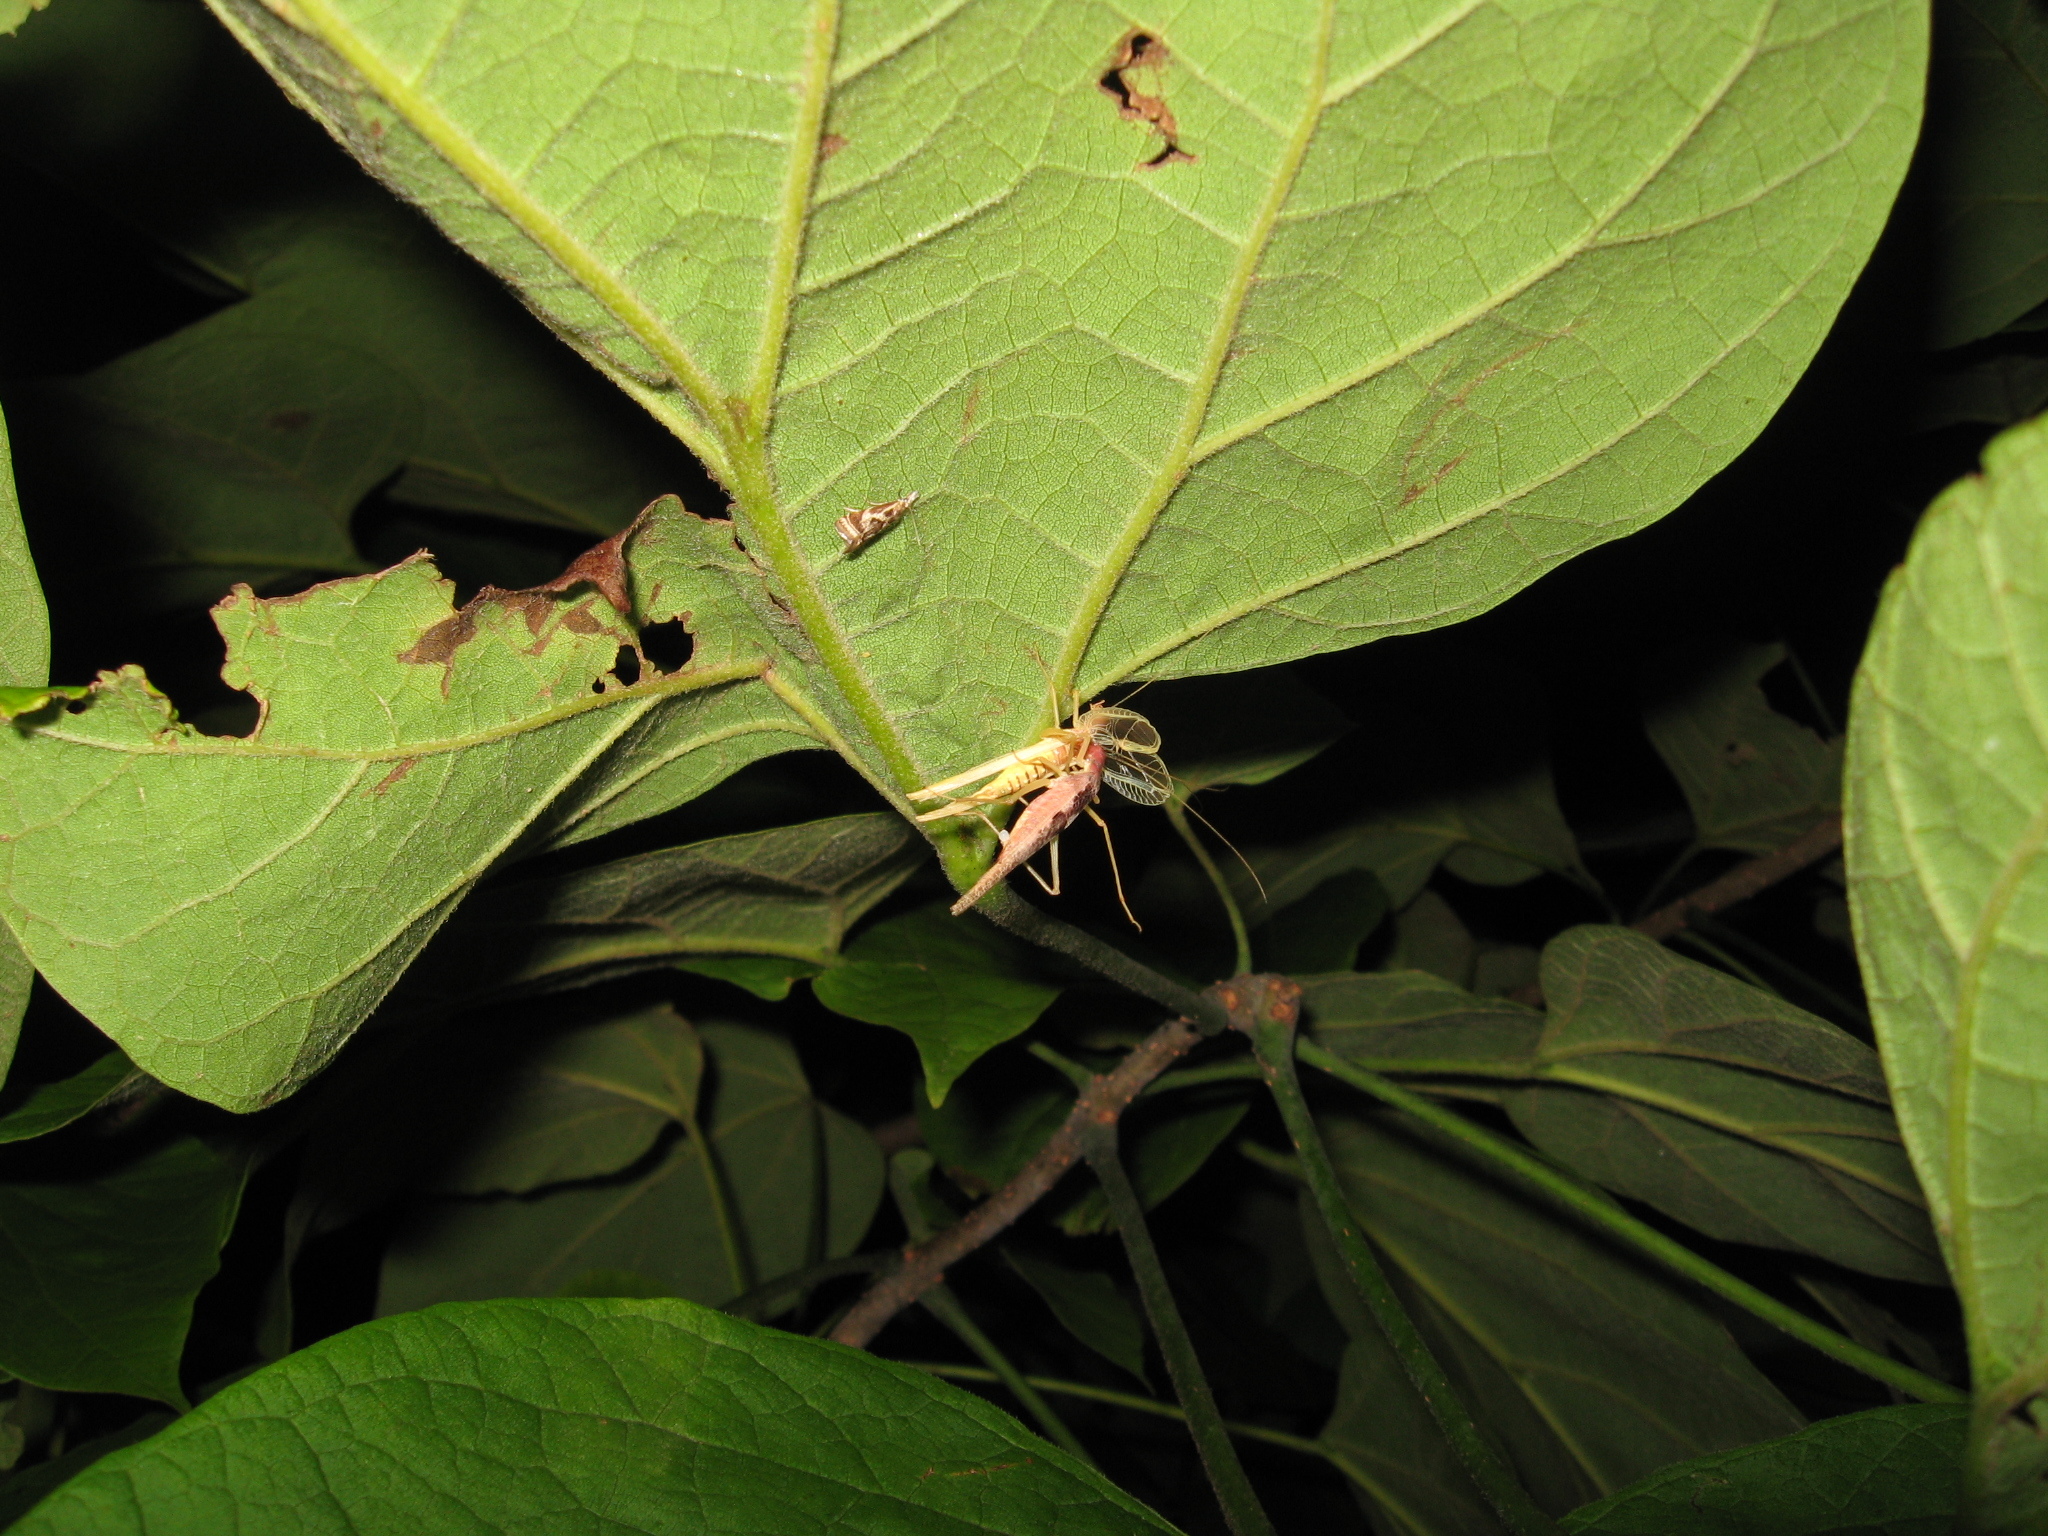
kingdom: Animalia
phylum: Arthropoda
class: Insecta
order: Orthoptera
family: Gryllidae
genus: Neoxabea
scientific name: Neoxabea bipunctata
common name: Two-spotted tree cricket
